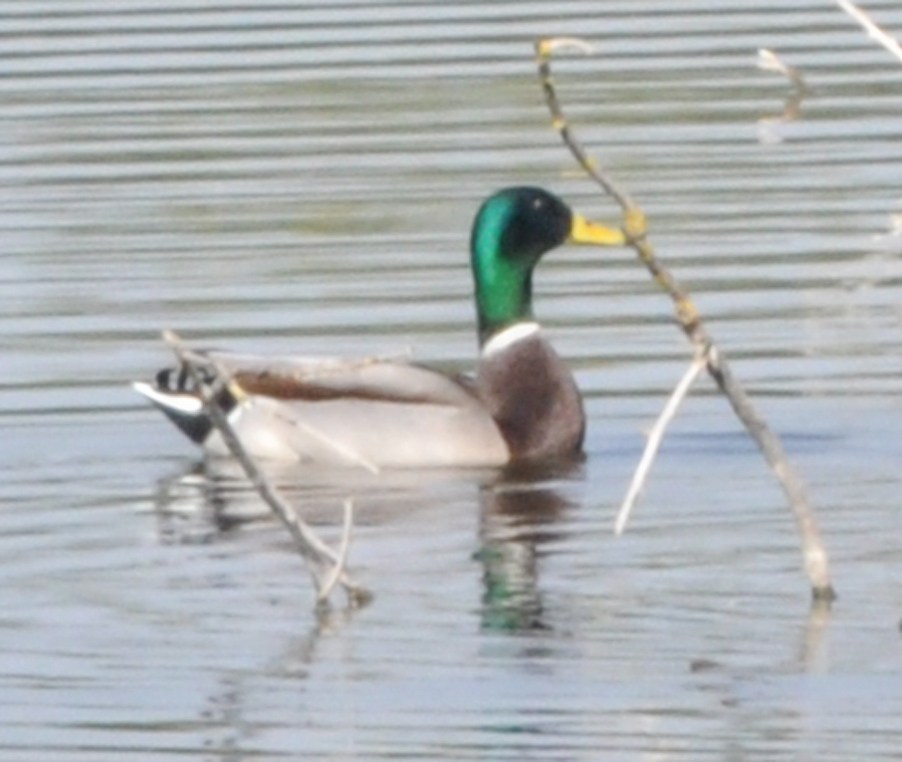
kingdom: Animalia
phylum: Chordata
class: Aves
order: Anseriformes
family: Anatidae
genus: Anas
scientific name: Anas platyrhynchos
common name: Mallard
